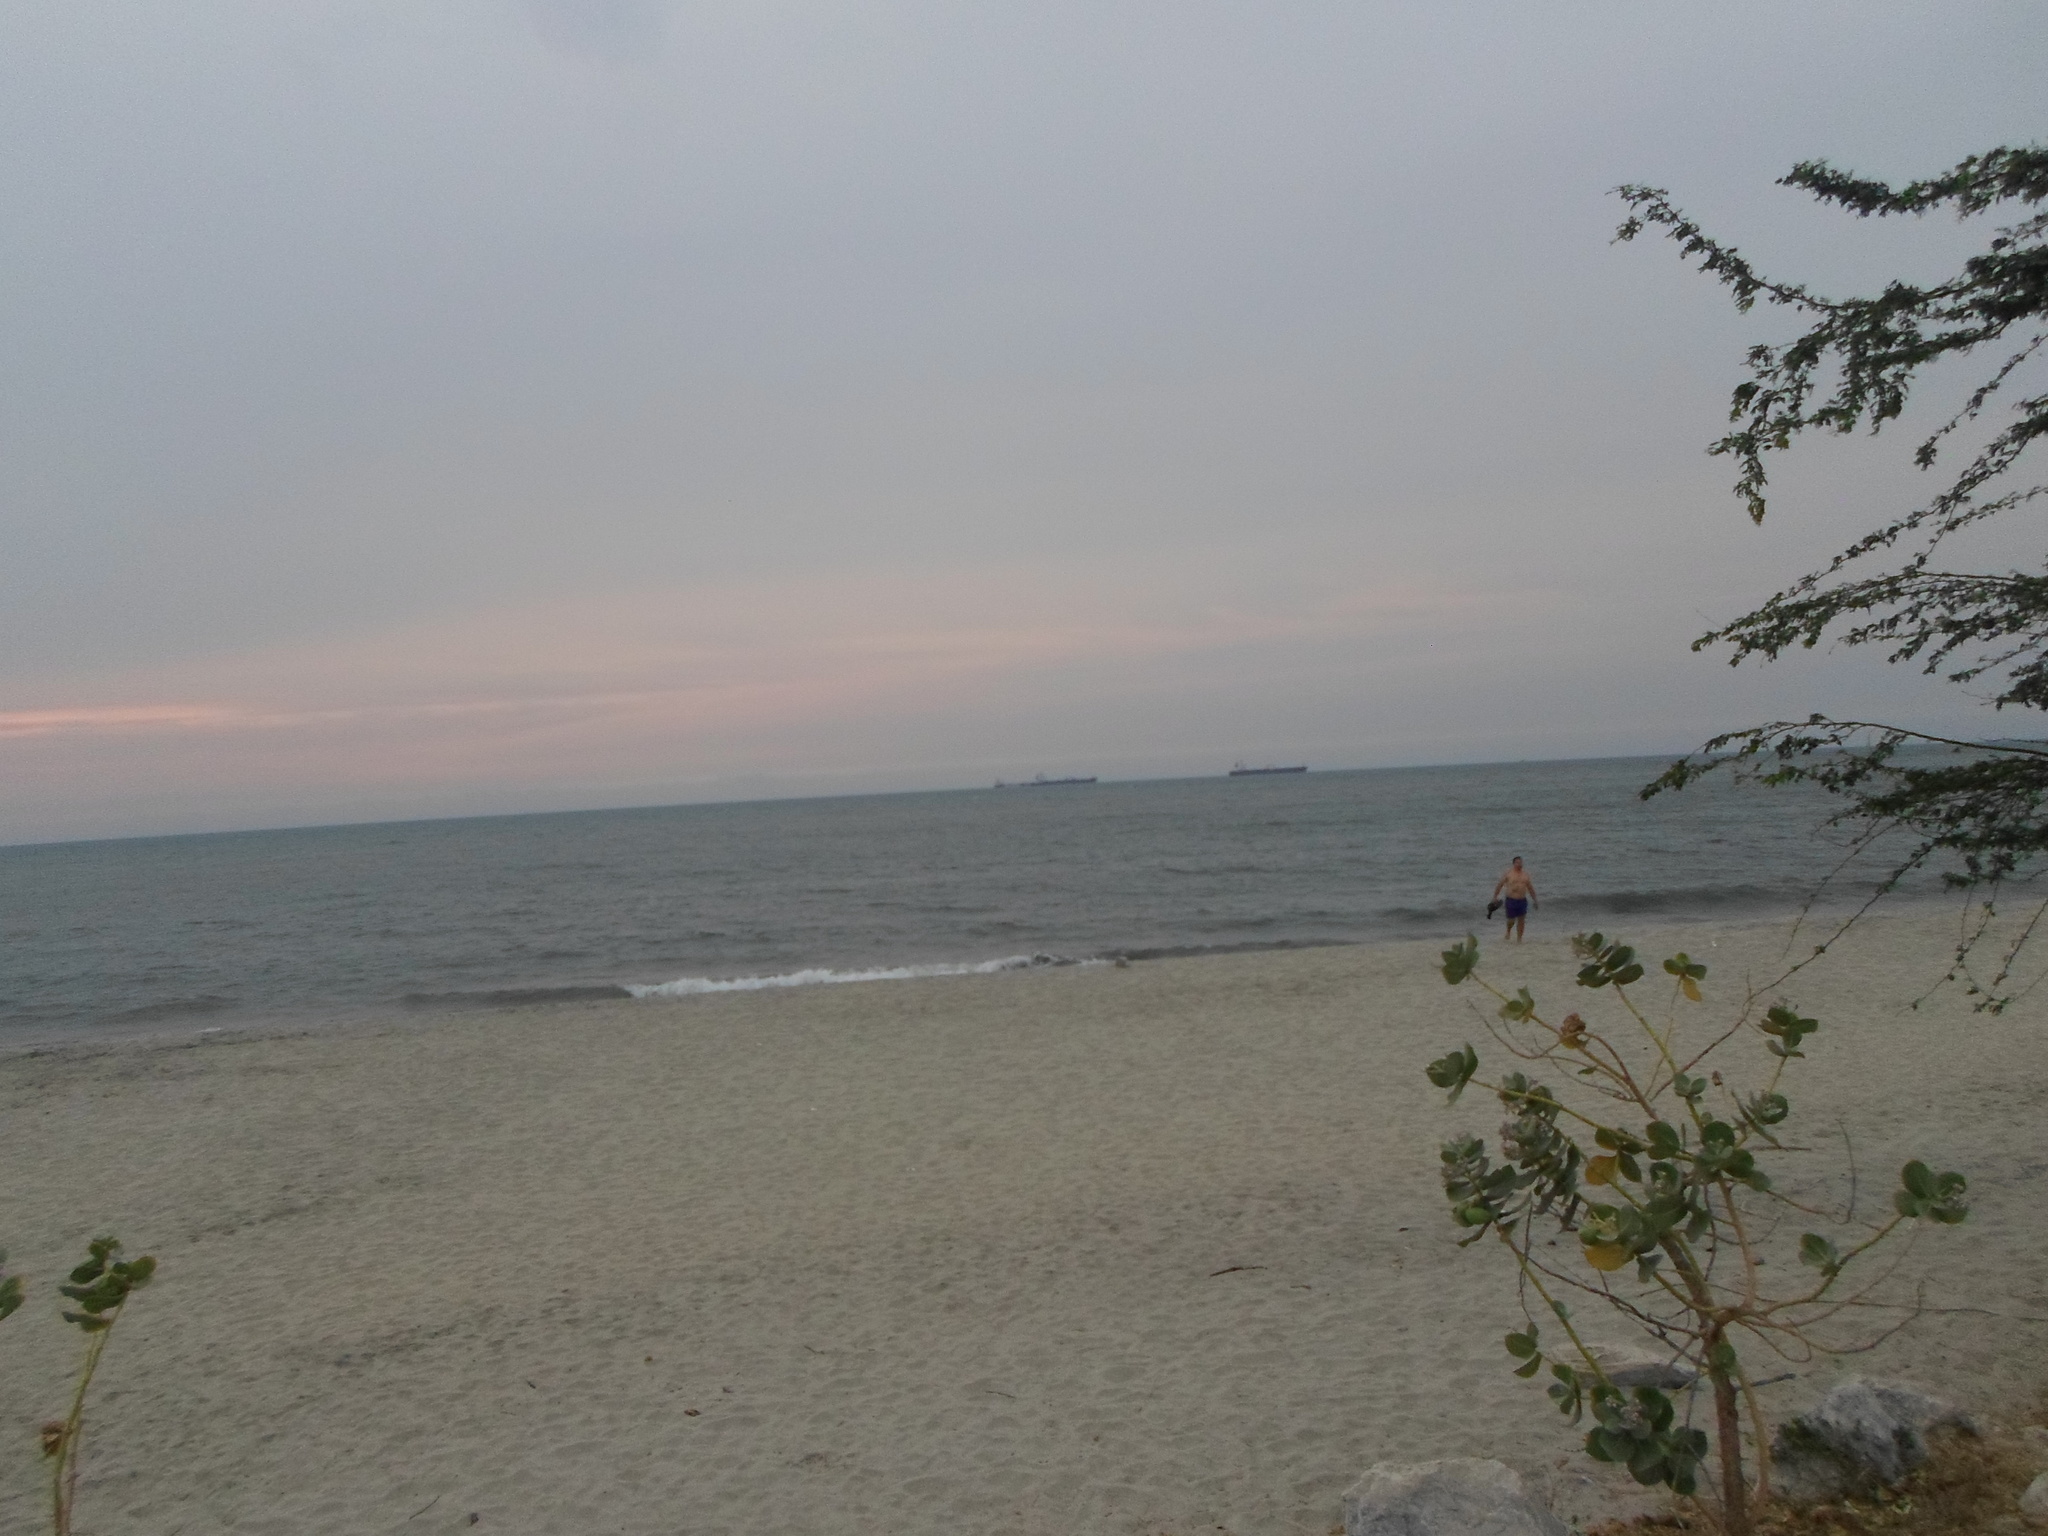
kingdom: Plantae
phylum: Tracheophyta
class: Magnoliopsida
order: Caryophyllales
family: Polygonaceae
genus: Coccoloba
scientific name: Coccoloba uvifera
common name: Seagrape
